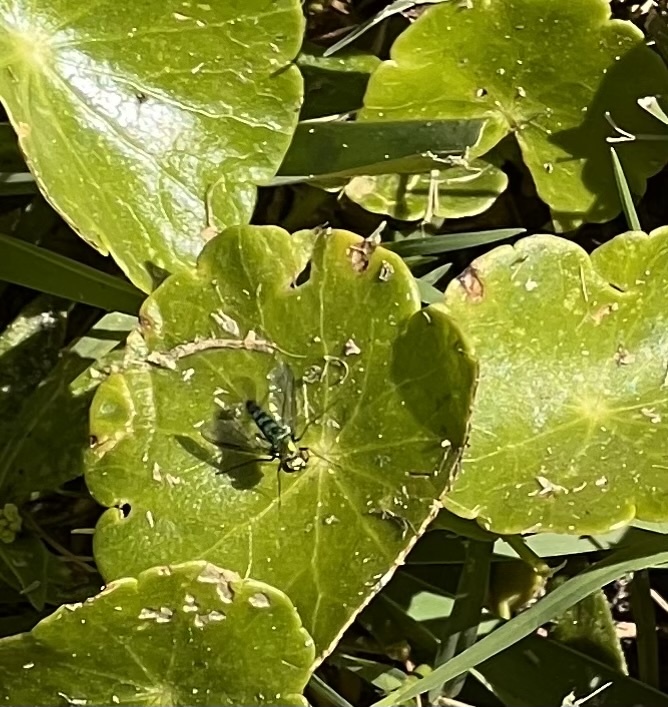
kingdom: Animalia
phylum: Arthropoda
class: Insecta
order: Diptera
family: Dolichopodidae
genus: Condylostylus
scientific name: Condylostylus longicornis
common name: Long-legged fly
